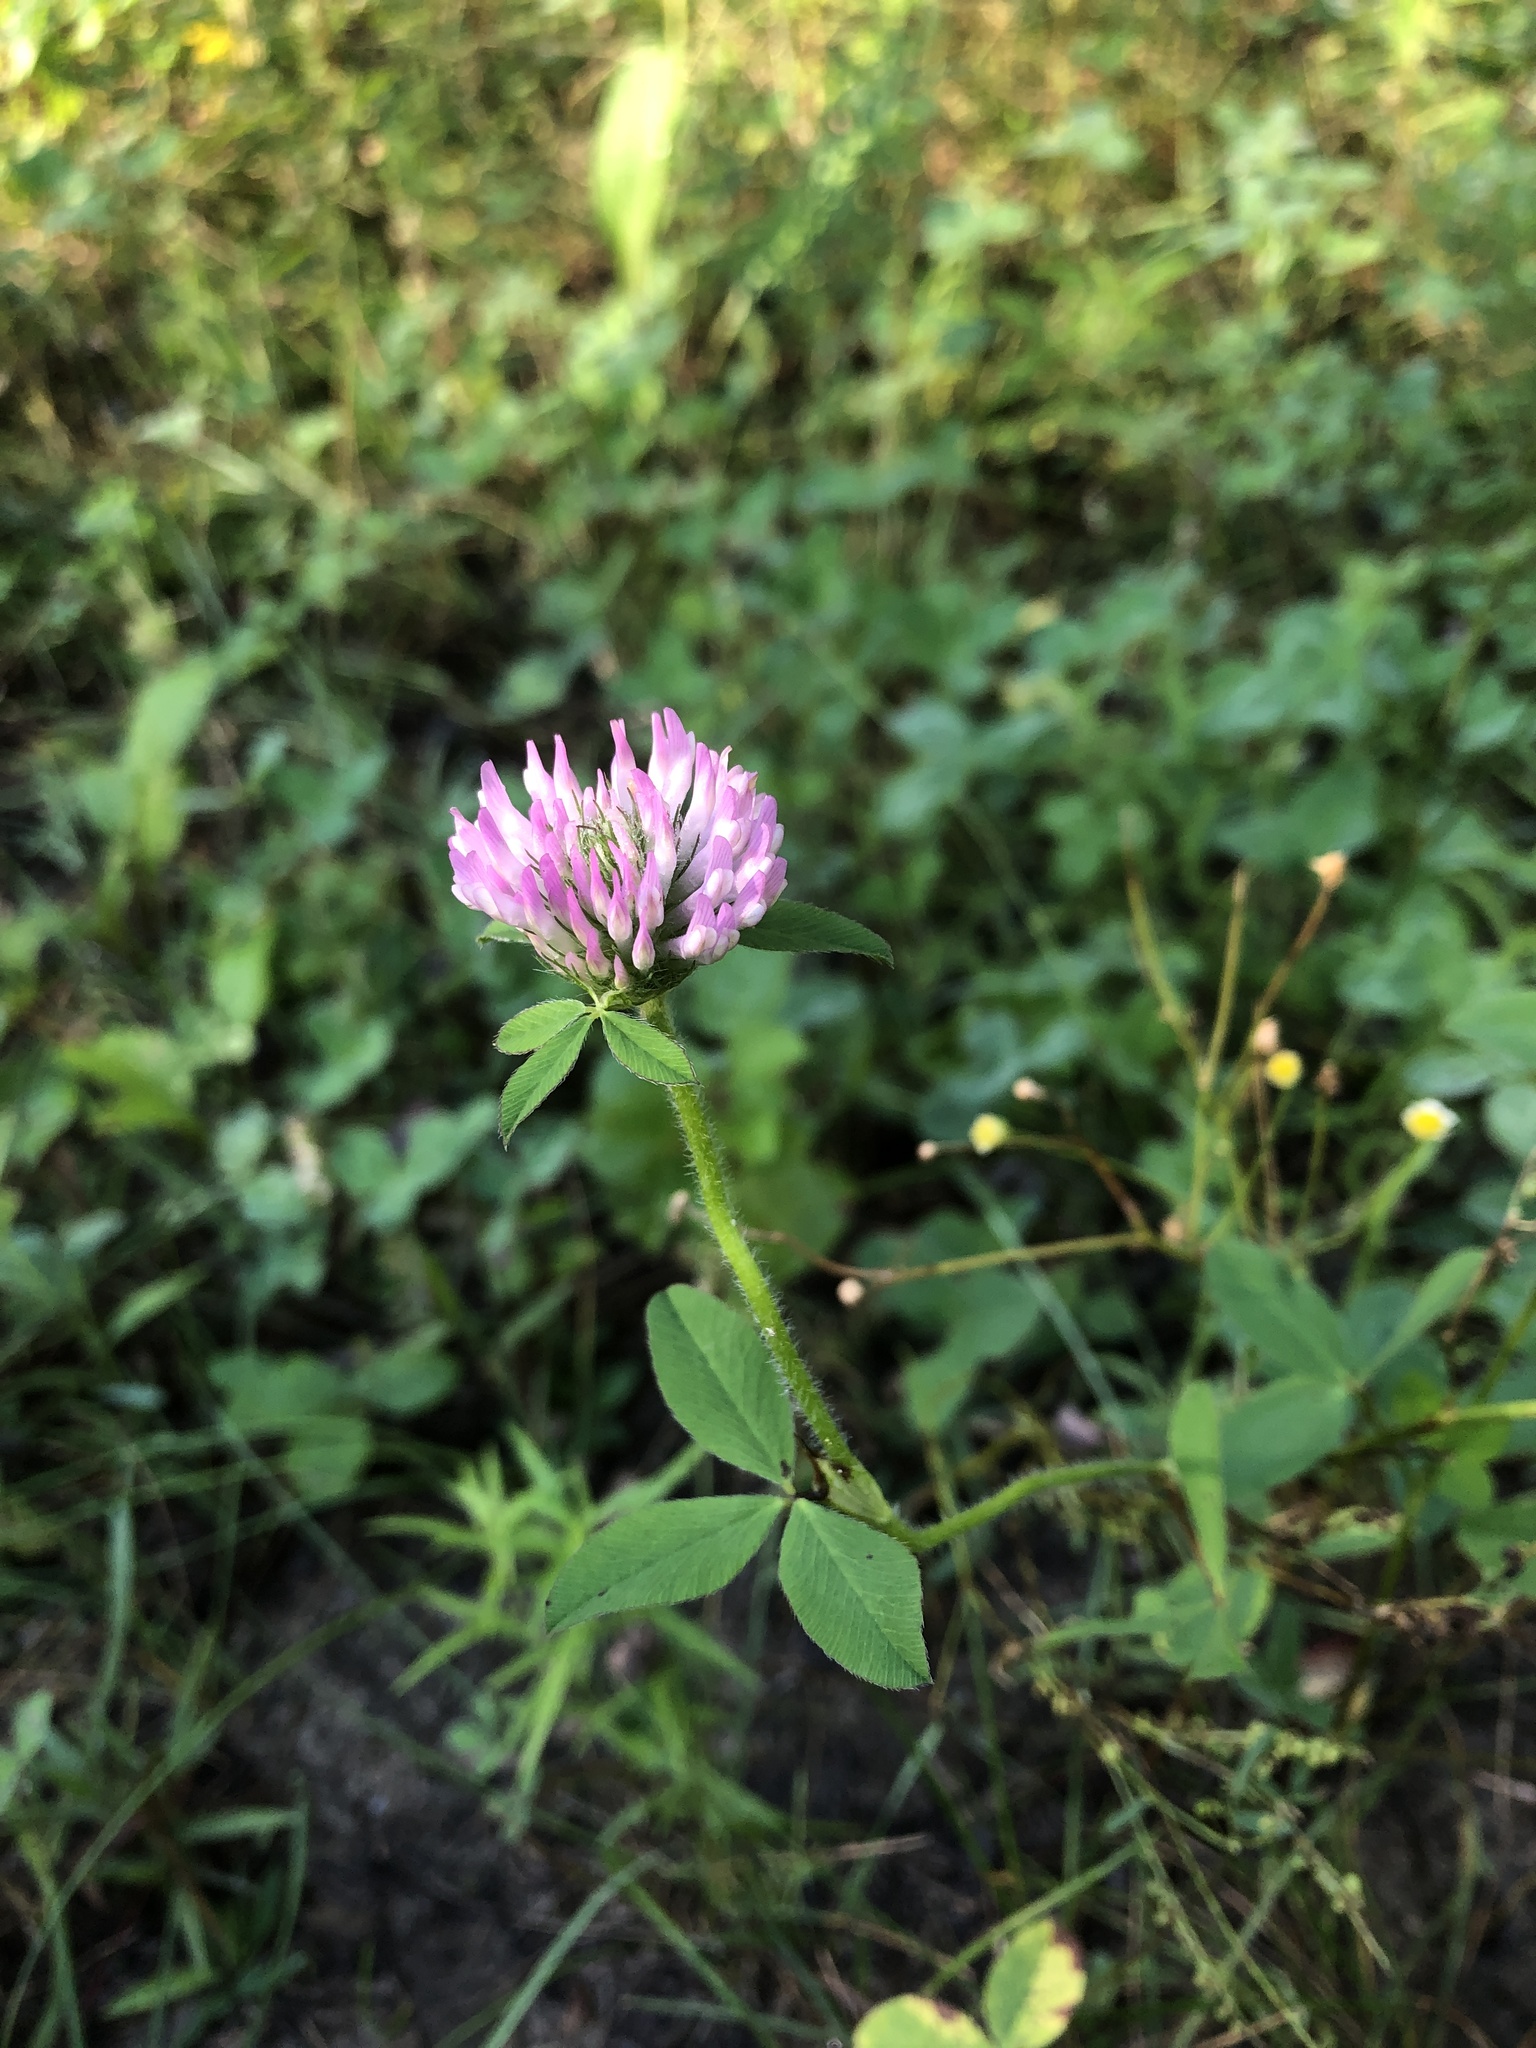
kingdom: Plantae
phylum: Tracheophyta
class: Magnoliopsida
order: Fabales
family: Fabaceae
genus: Trifolium
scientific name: Trifolium pratense
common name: Red clover
